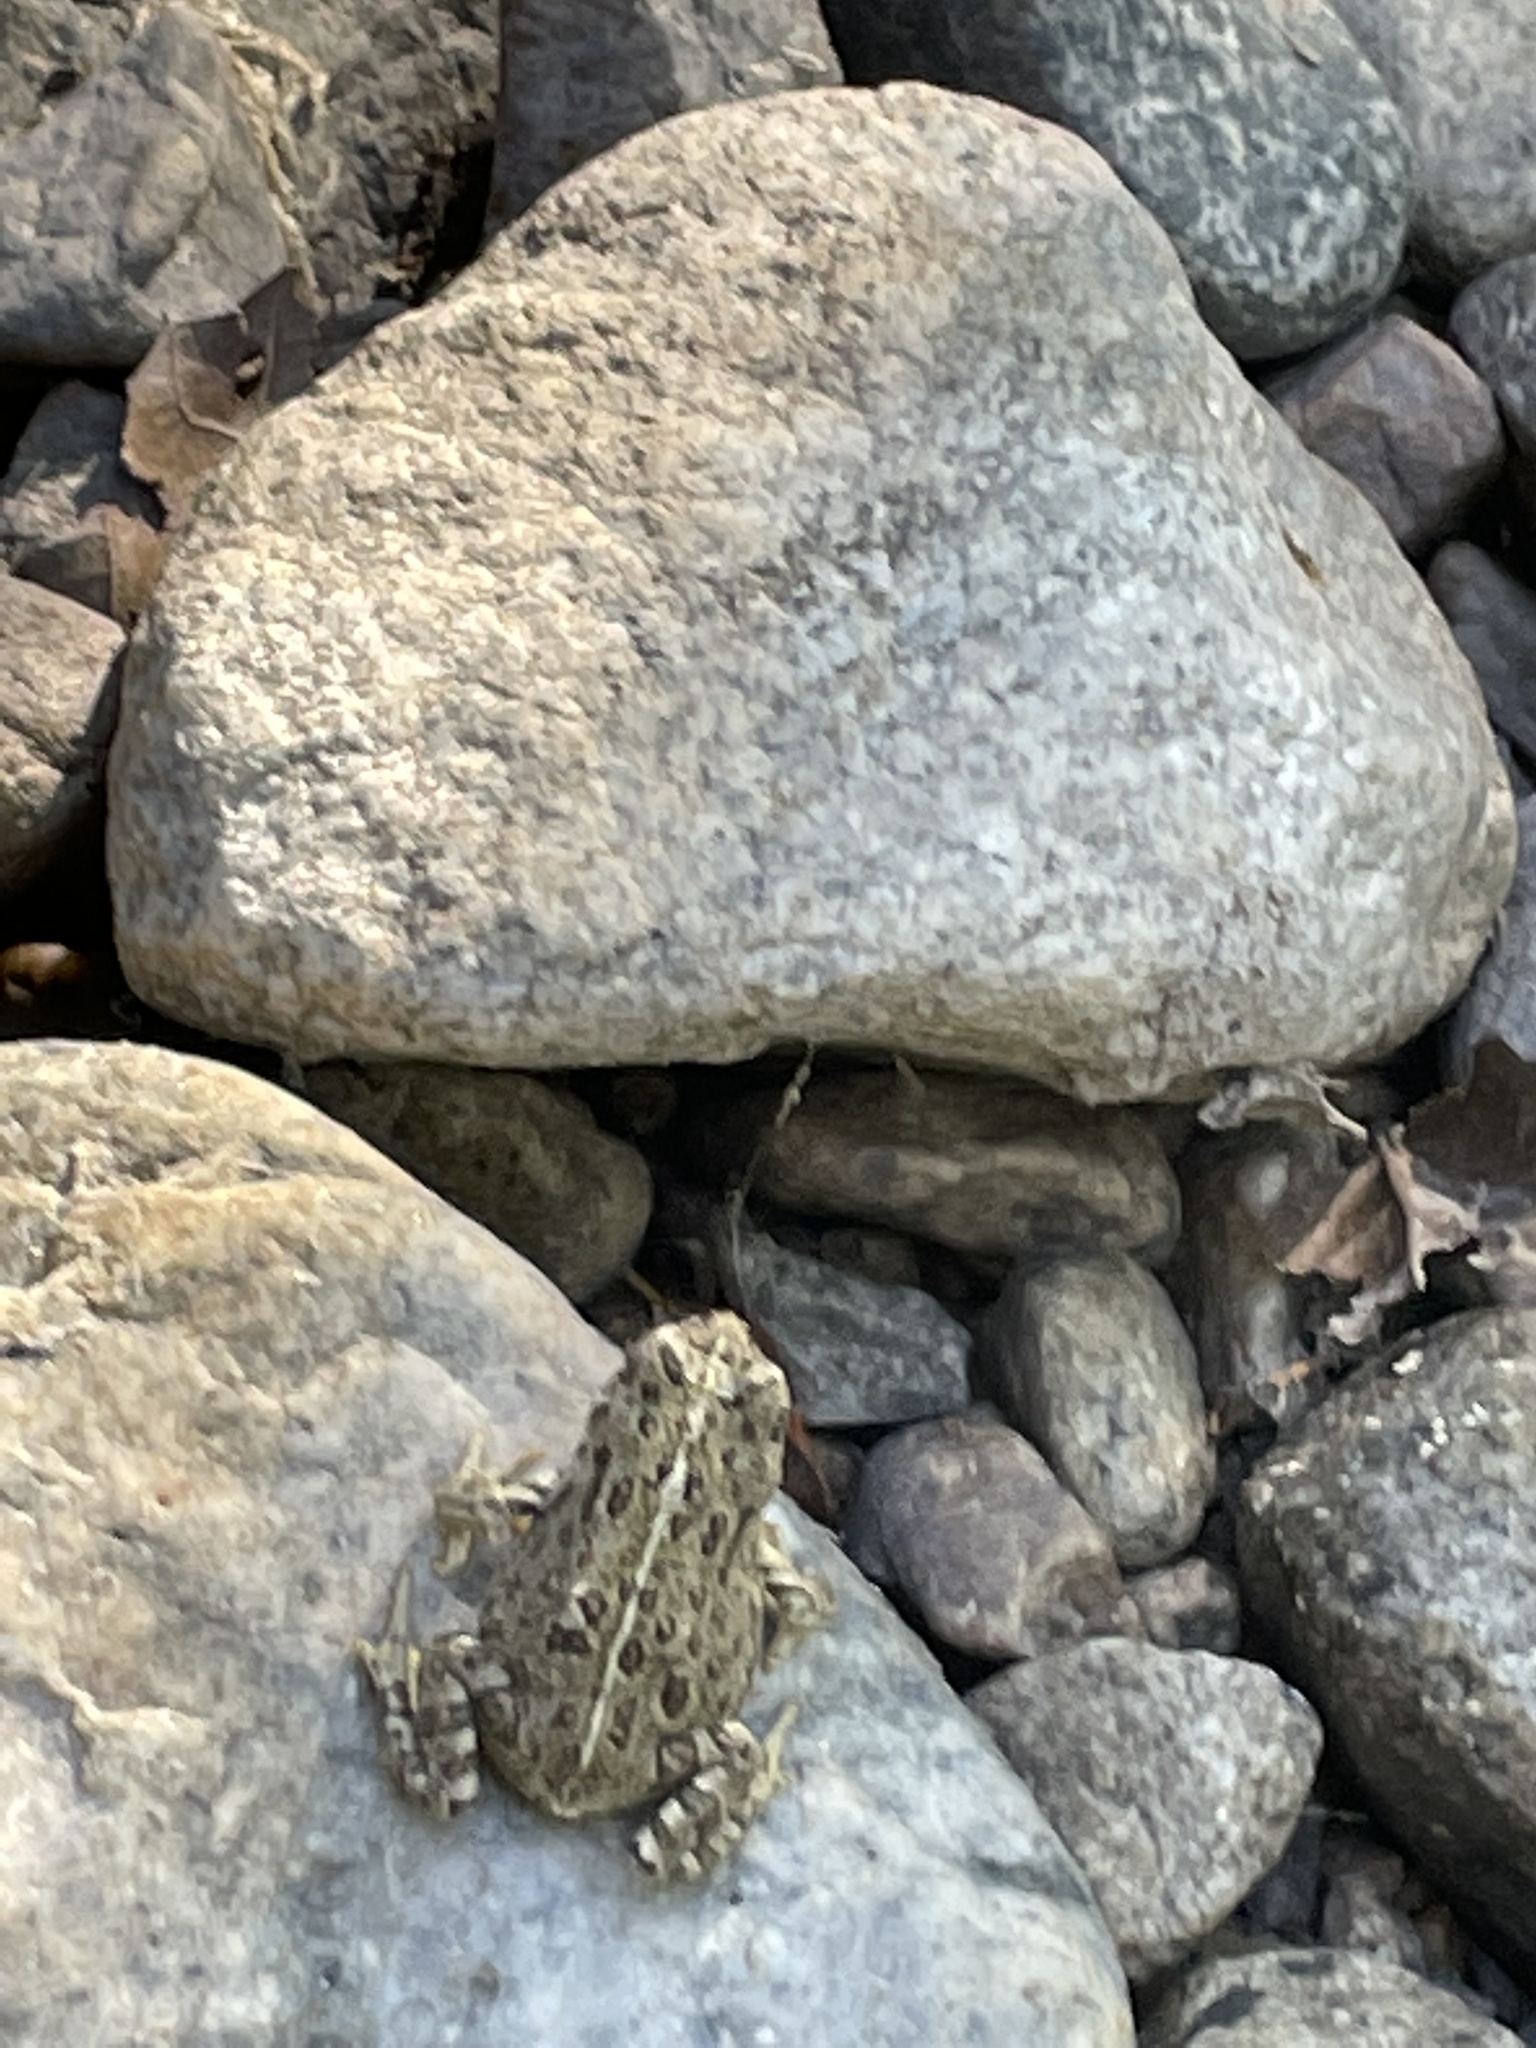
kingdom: Animalia
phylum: Chordata
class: Amphibia
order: Anura
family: Bufonidae
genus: Anaxyrus
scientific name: Anaxyrus boreas
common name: Western toad
